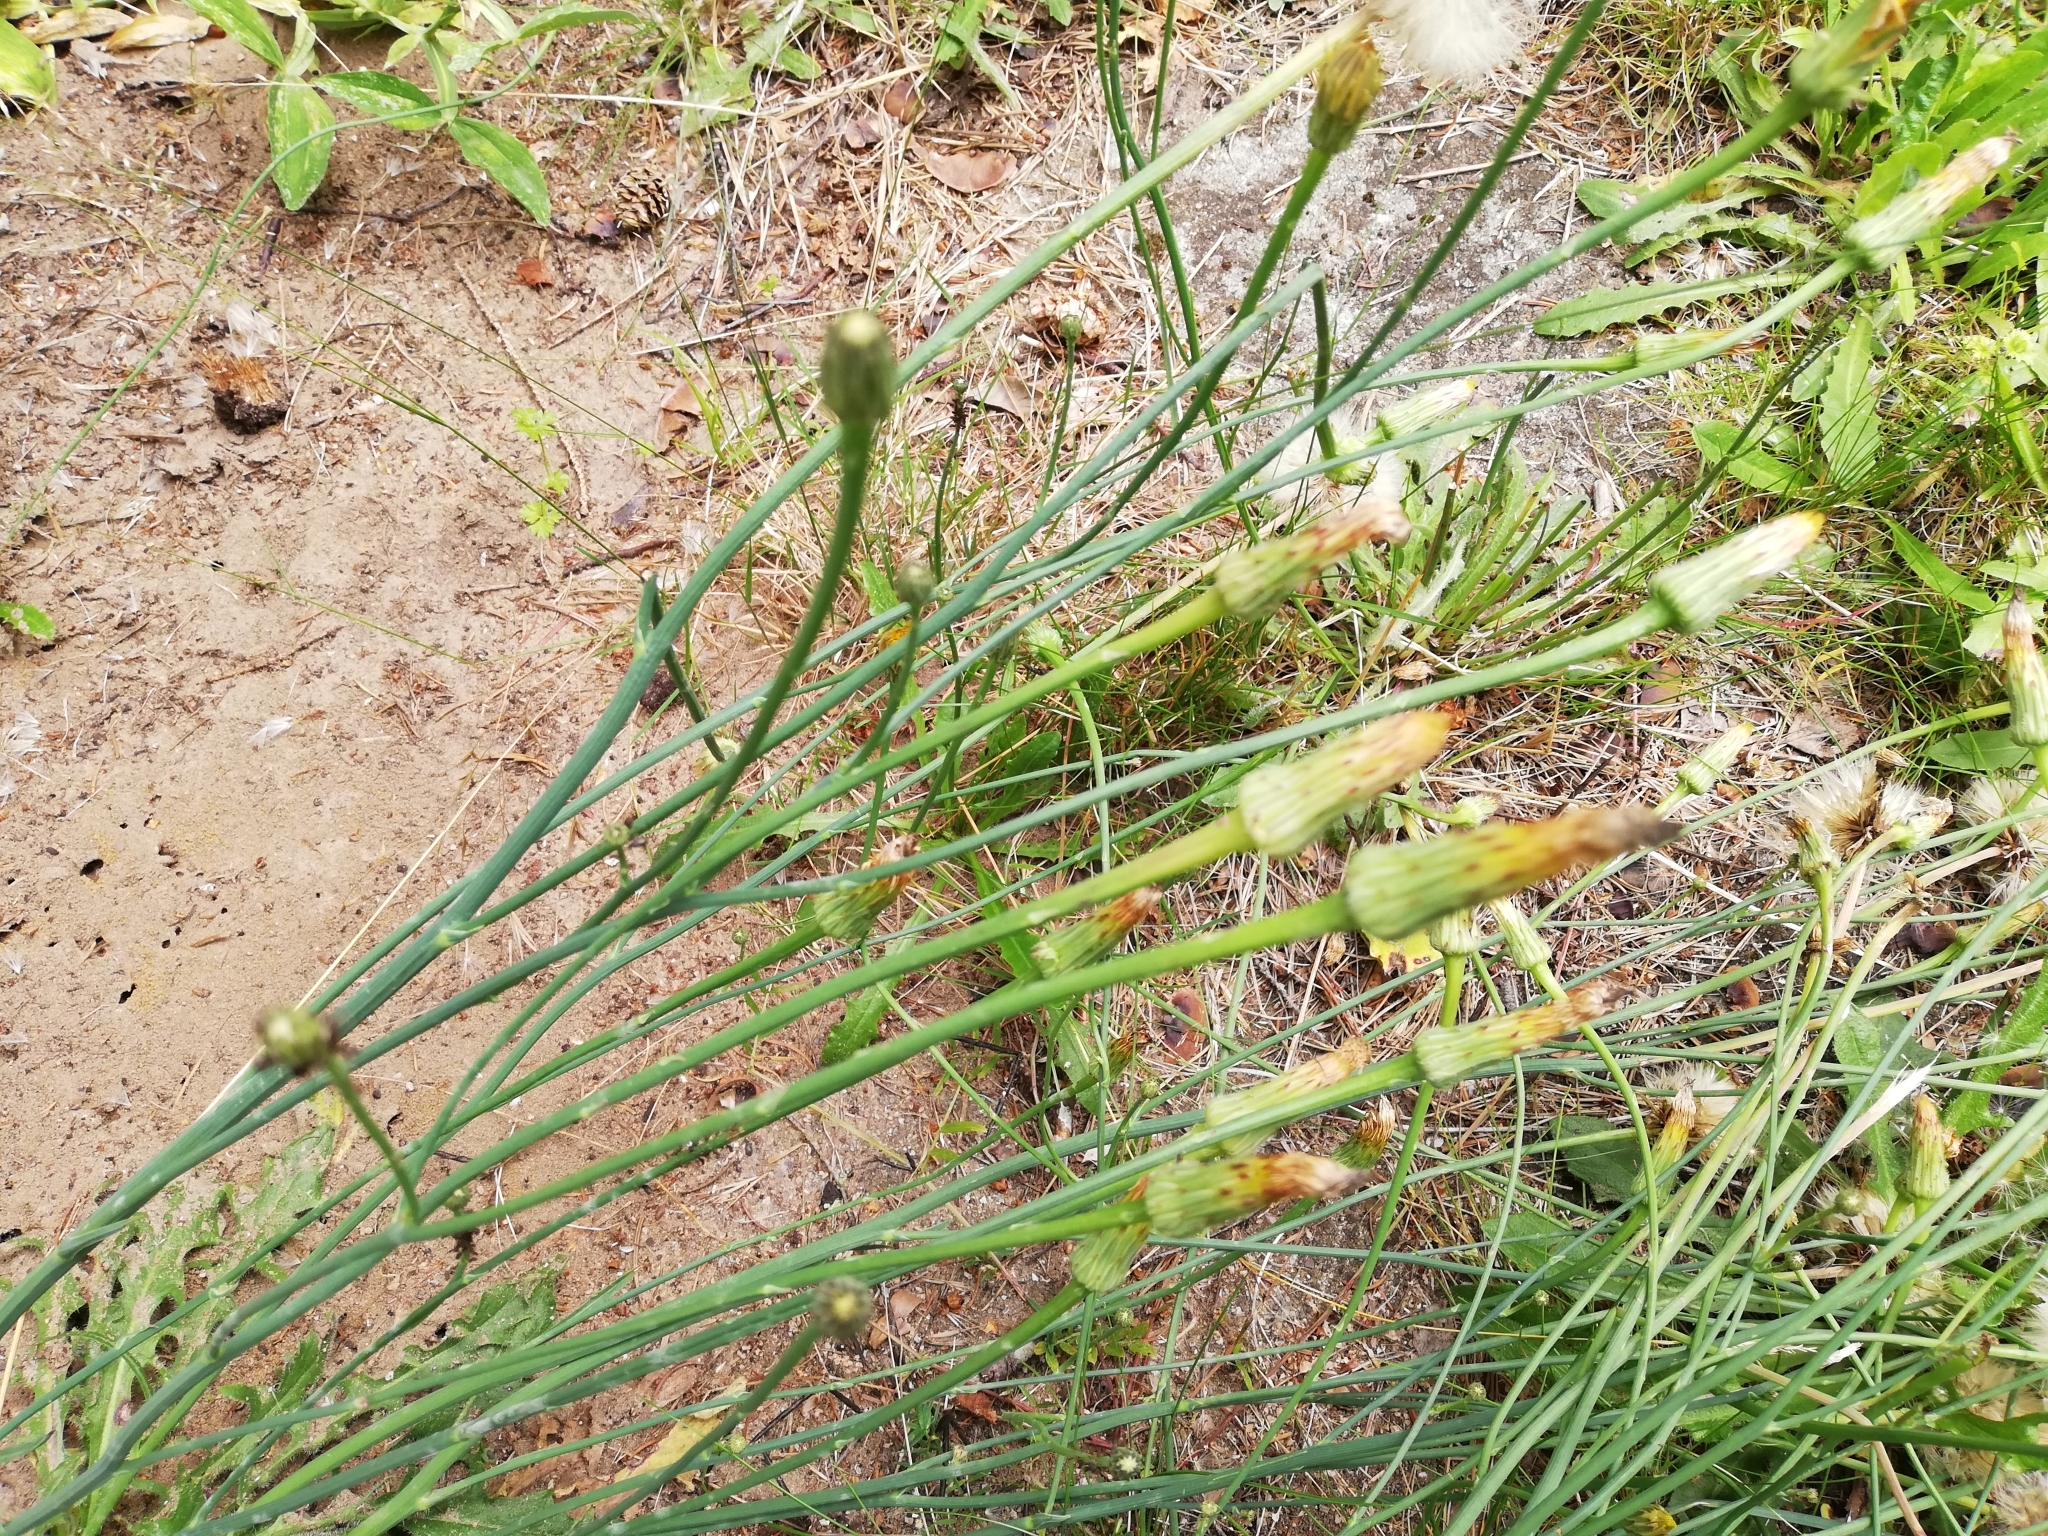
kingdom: Plantae
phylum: Tracheophyta
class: Magnoliopsida
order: Asterales
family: Asteraceae
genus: Hypochaeris
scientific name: Hypochaeris radicata
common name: Flatweed
